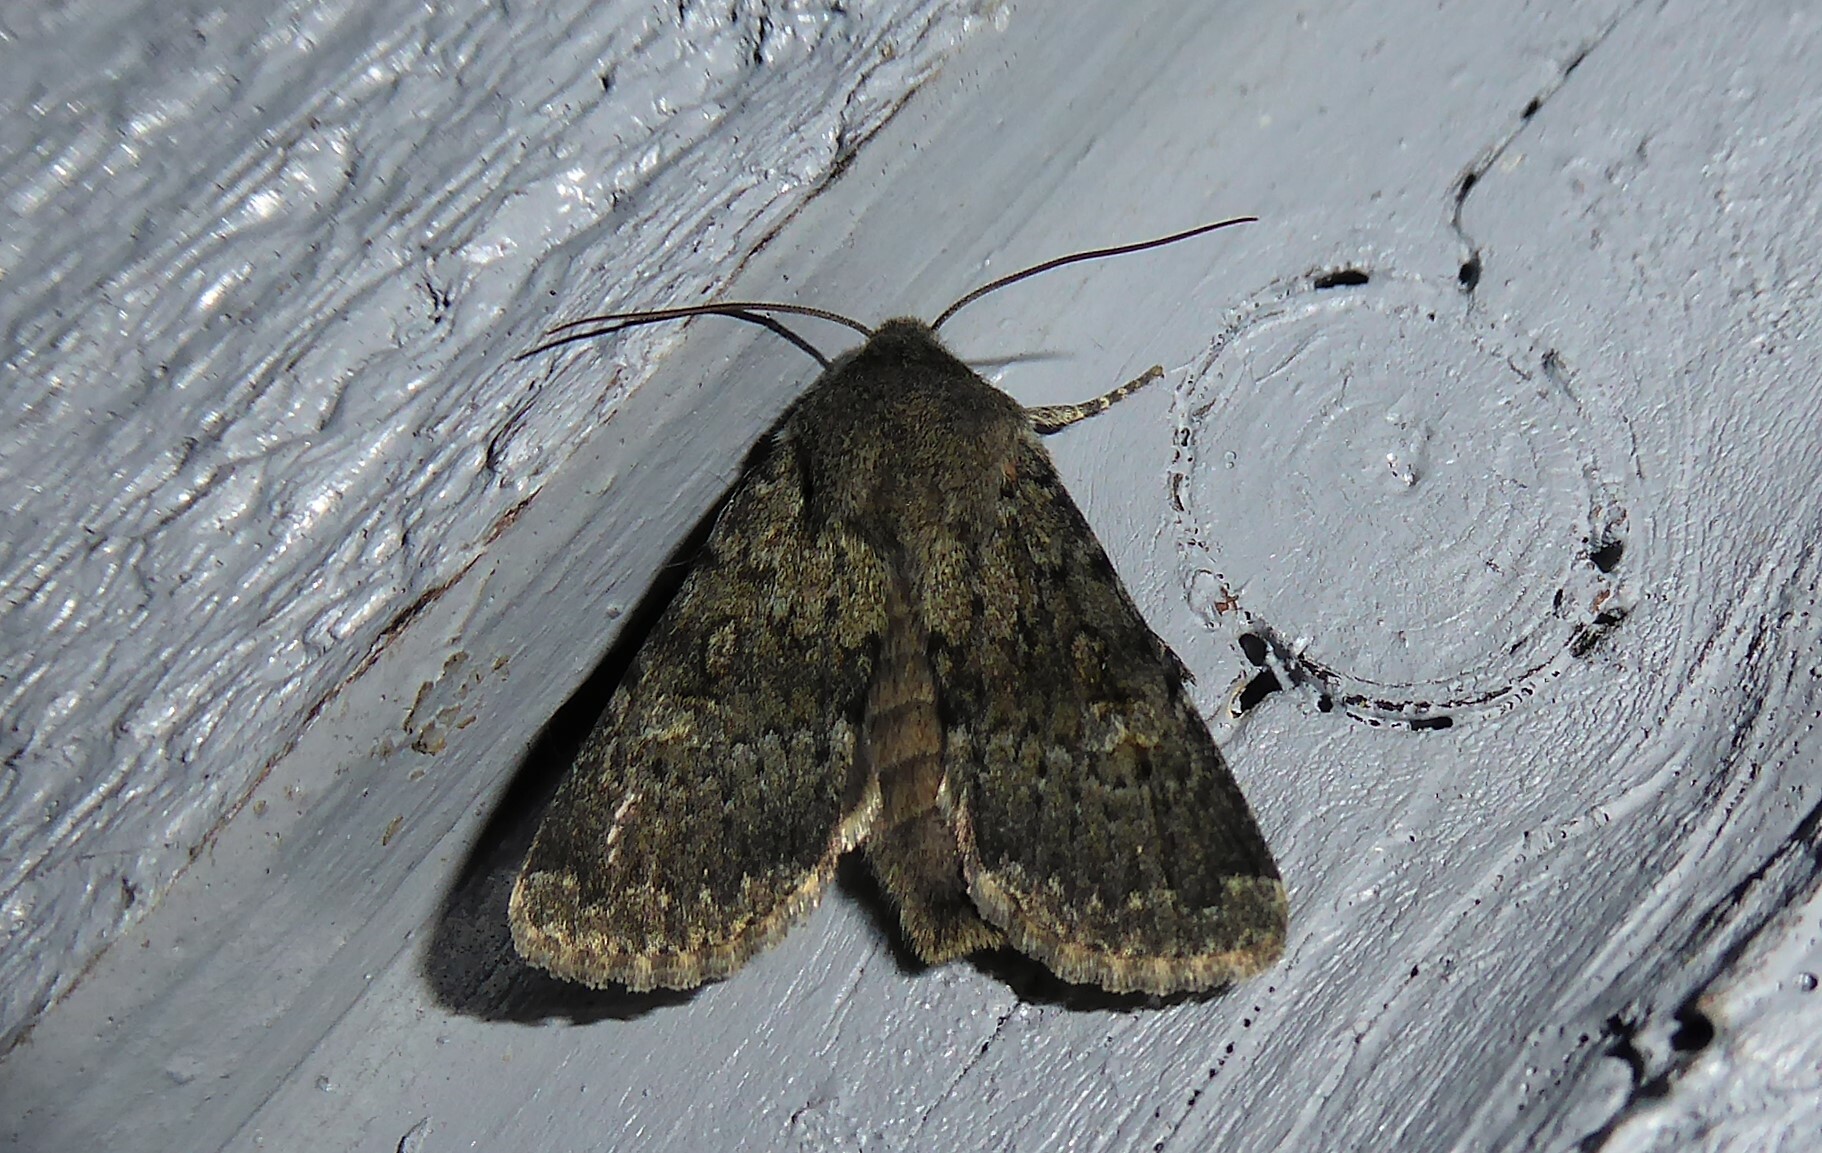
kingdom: Animalia
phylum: Arthropoda
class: Insecta
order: Lepidoptera
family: Noctuidae
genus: Ichneutica
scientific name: Ichneutica moderata
